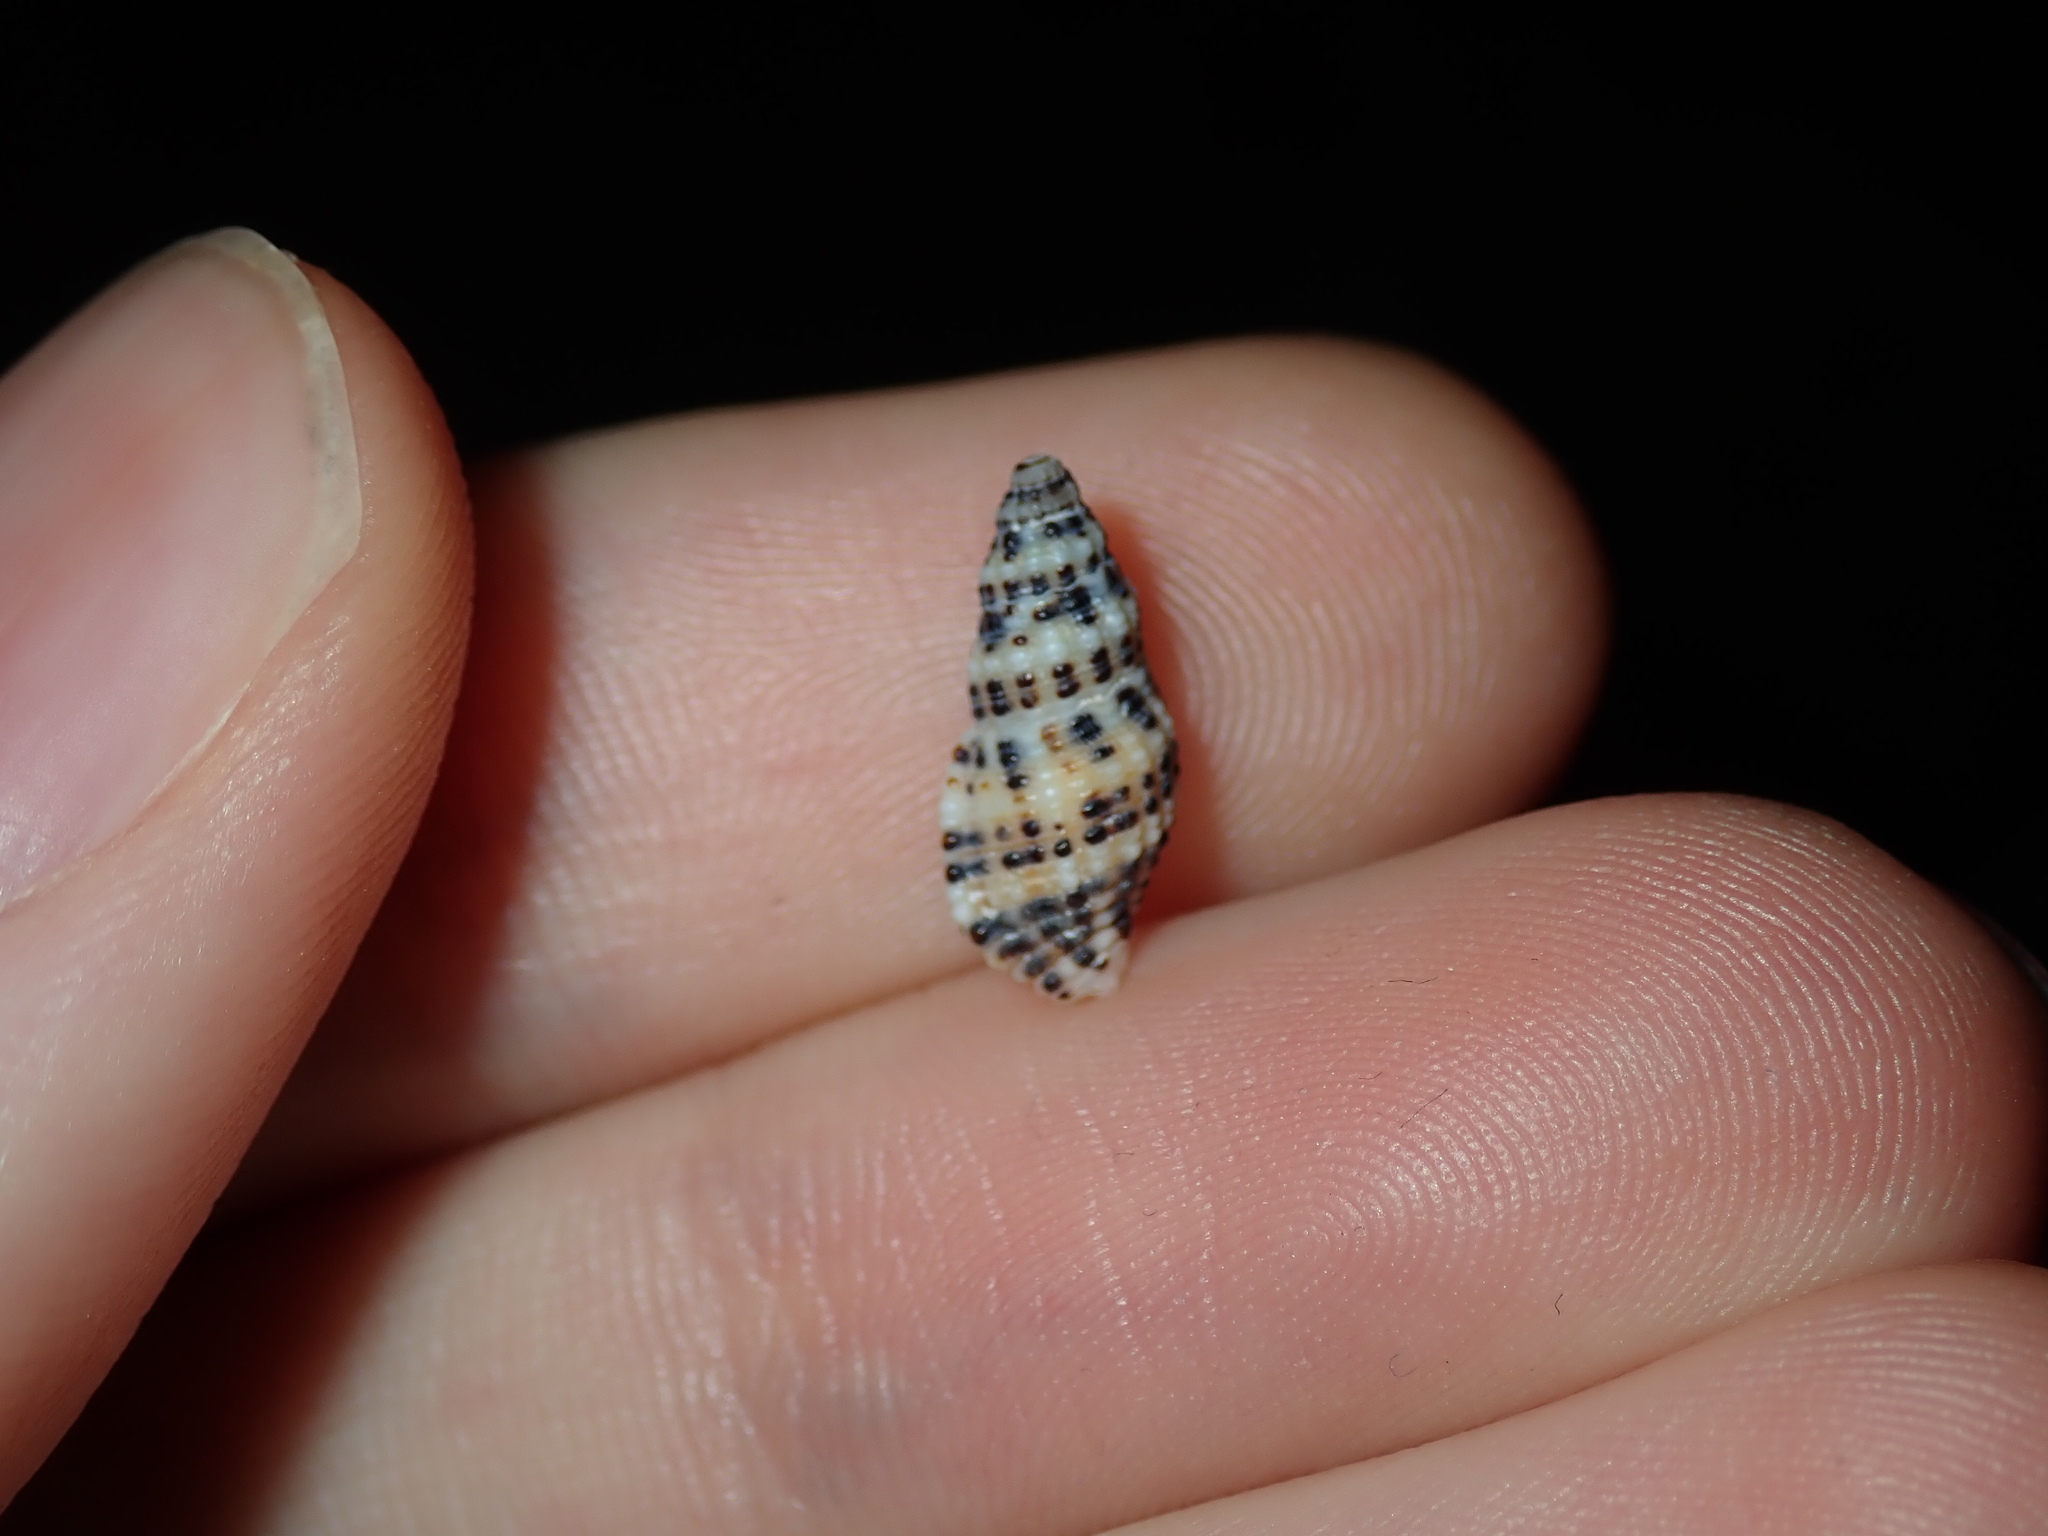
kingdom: Animalia
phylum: Mollusca
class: Gastropoda
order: Neogastropoda
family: Muricidae
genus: Maculotriton
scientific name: Maculotriton serriale
